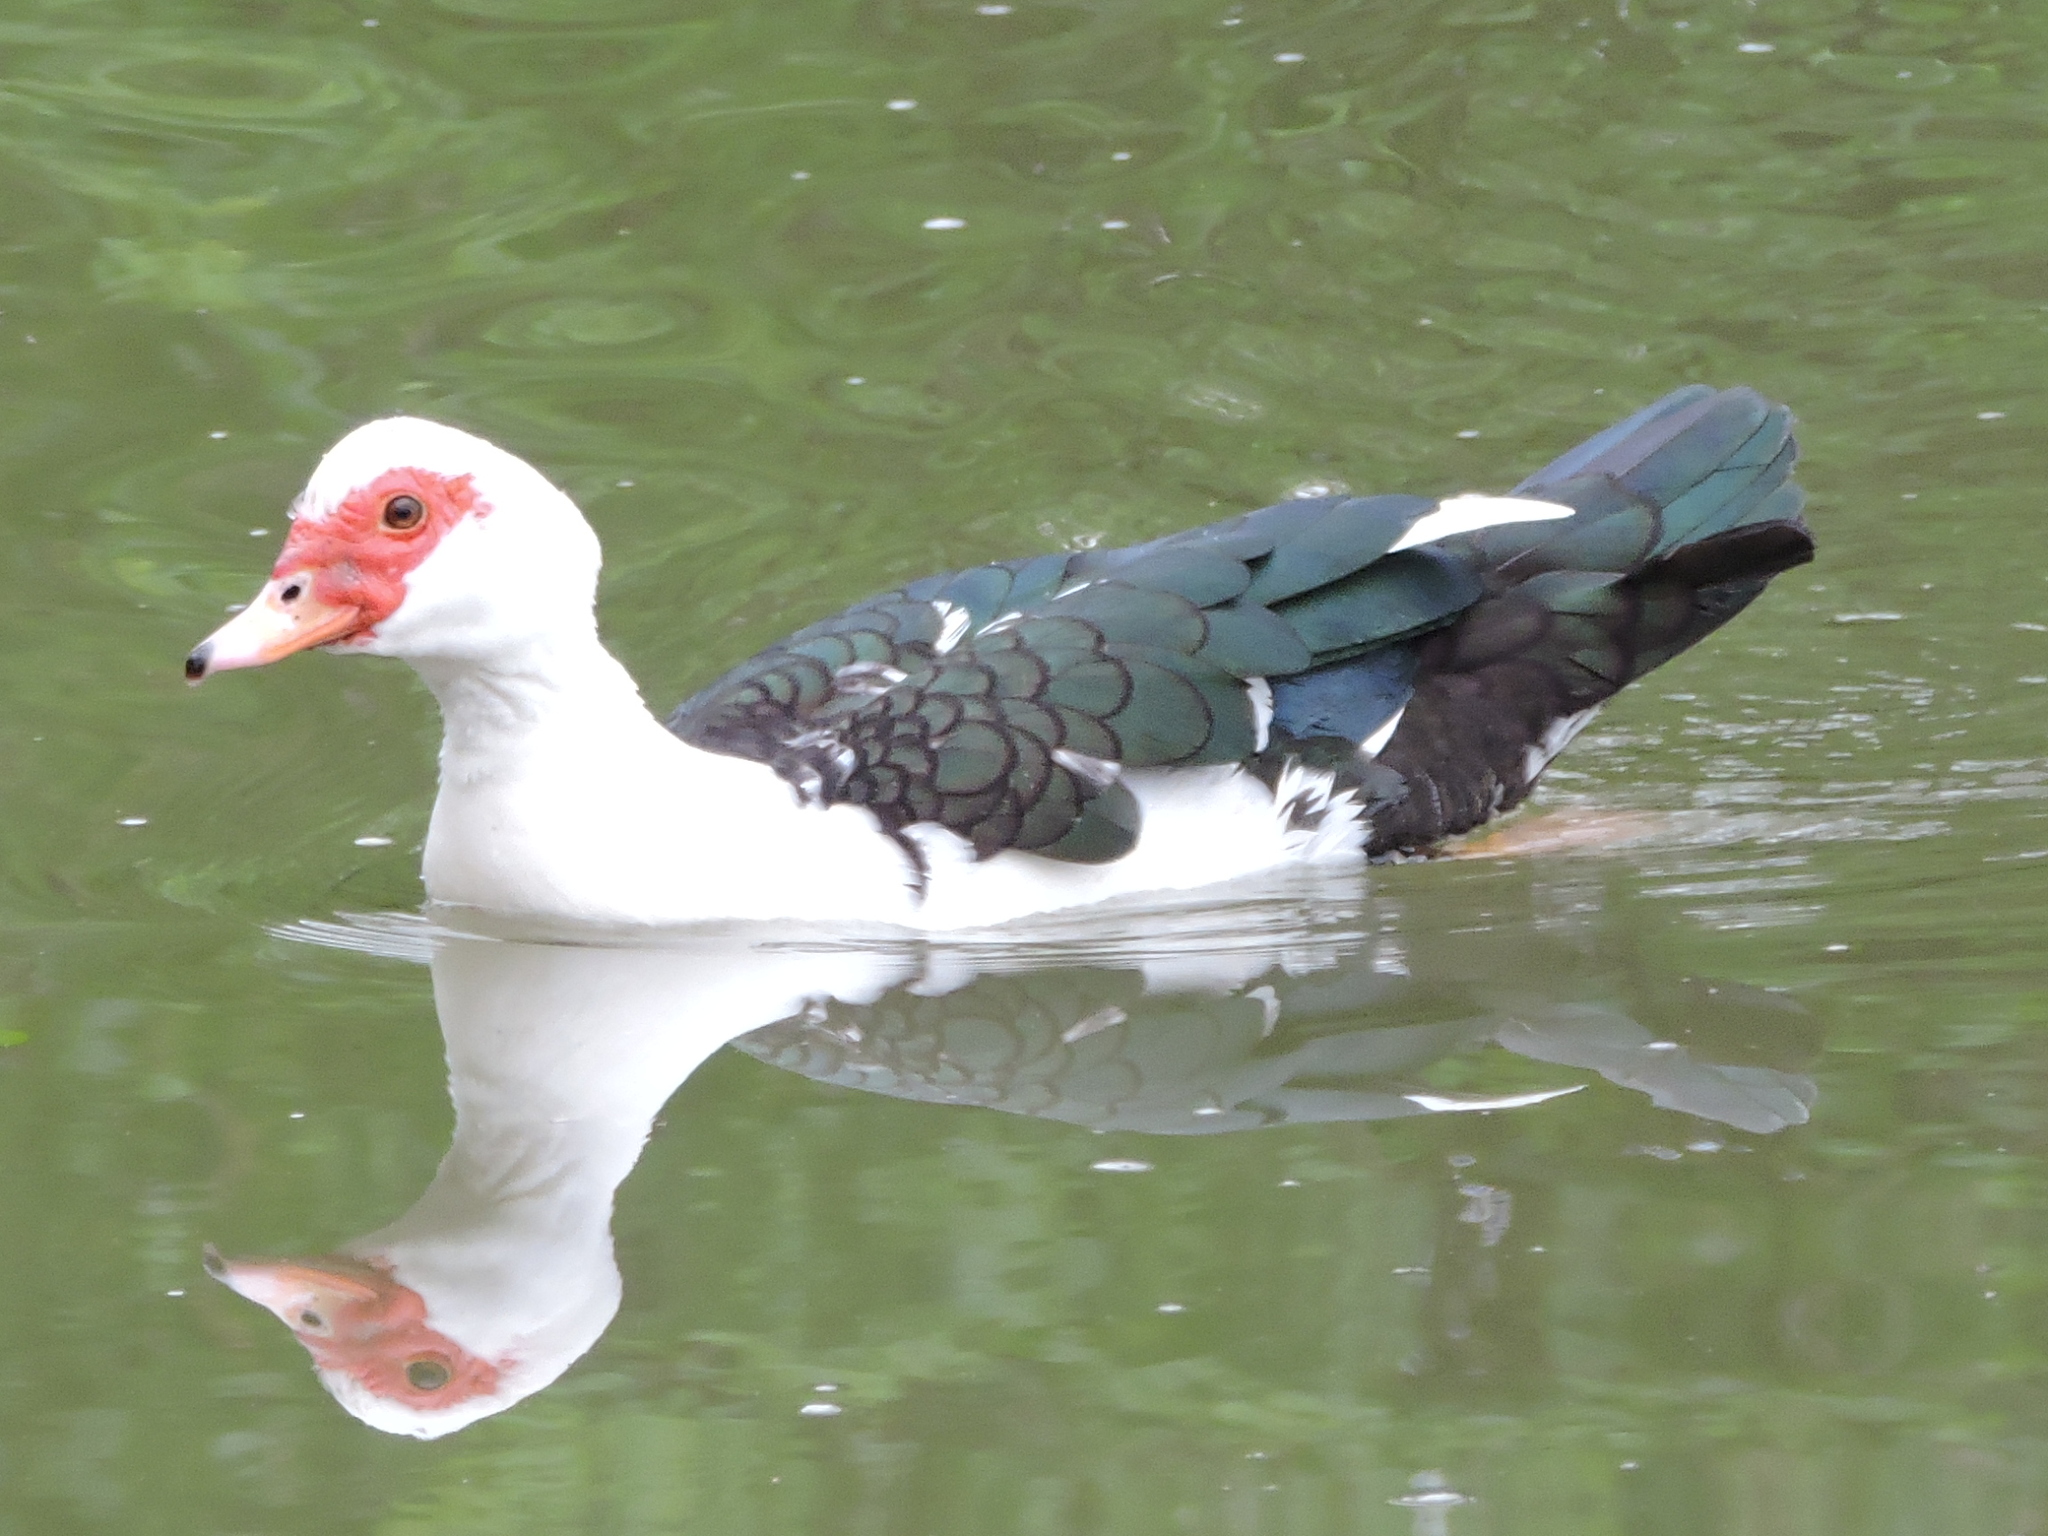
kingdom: Animalia
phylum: Chordata
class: Aves
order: Anseriformes
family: Anatidae
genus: Cairina
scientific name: Cairina moschata
